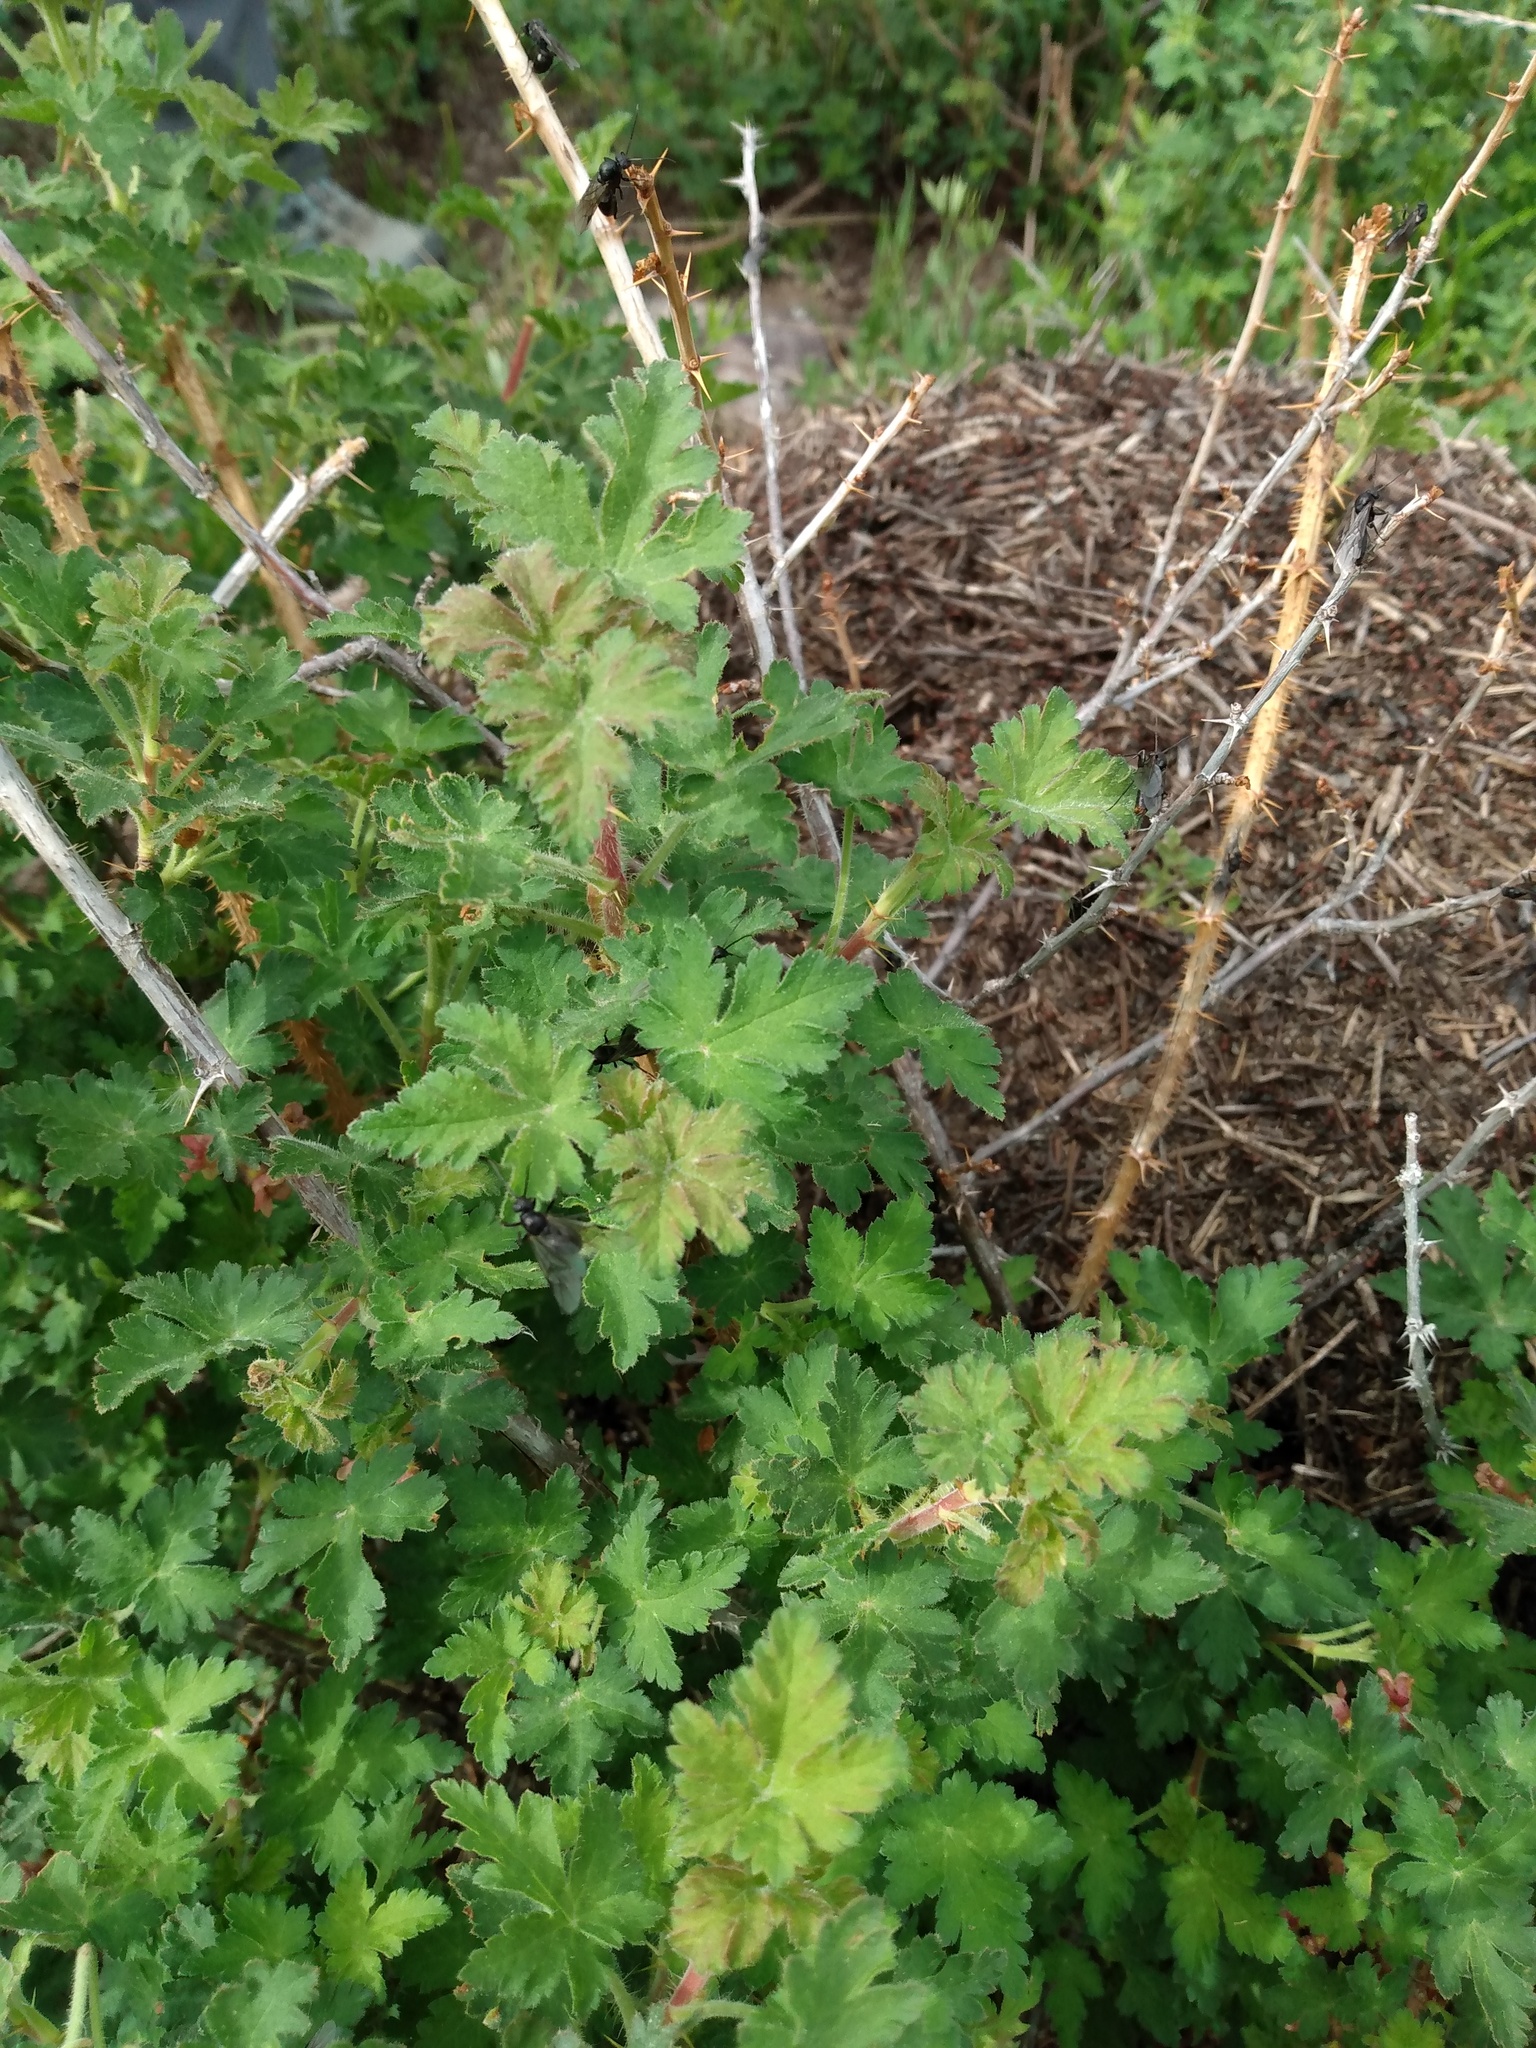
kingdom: Plantae
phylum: Tracheophyta
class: Magnoliopsida
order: Saxifragales
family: Grossulariaceae
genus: Ribes
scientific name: Ribes montigenum
